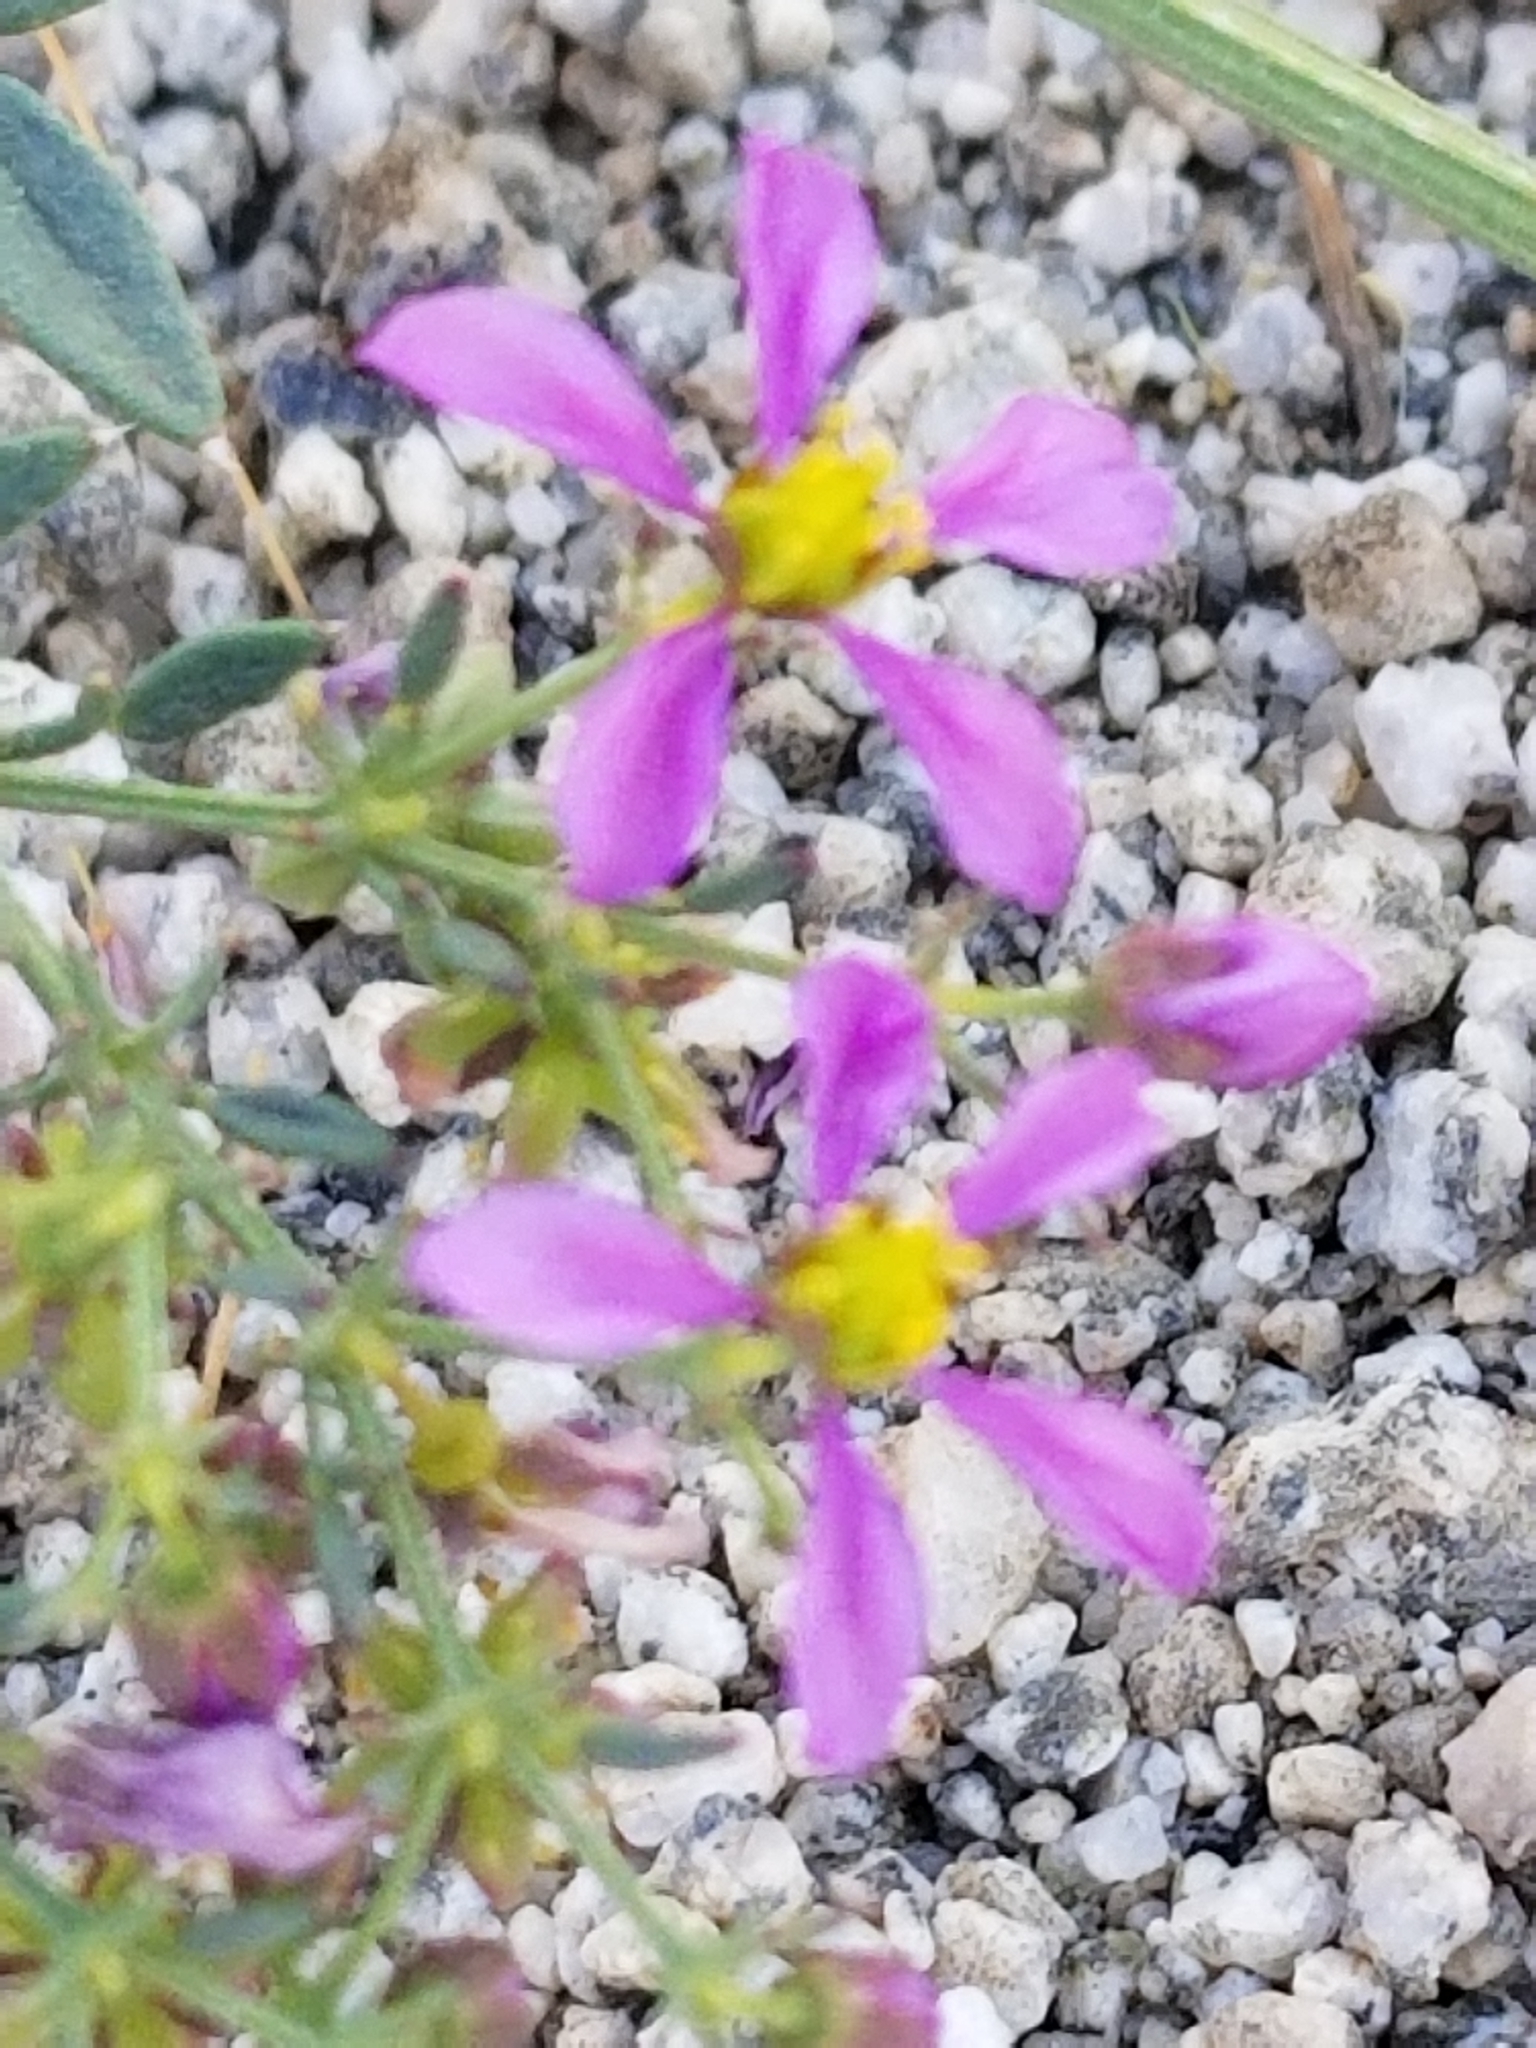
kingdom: Plantae
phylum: Tracheophyta
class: Magnoliopsida
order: Zygophyllales
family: Zygophyllaceae
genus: Fagonia
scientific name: Fagonia laevis
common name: California fagonbush
